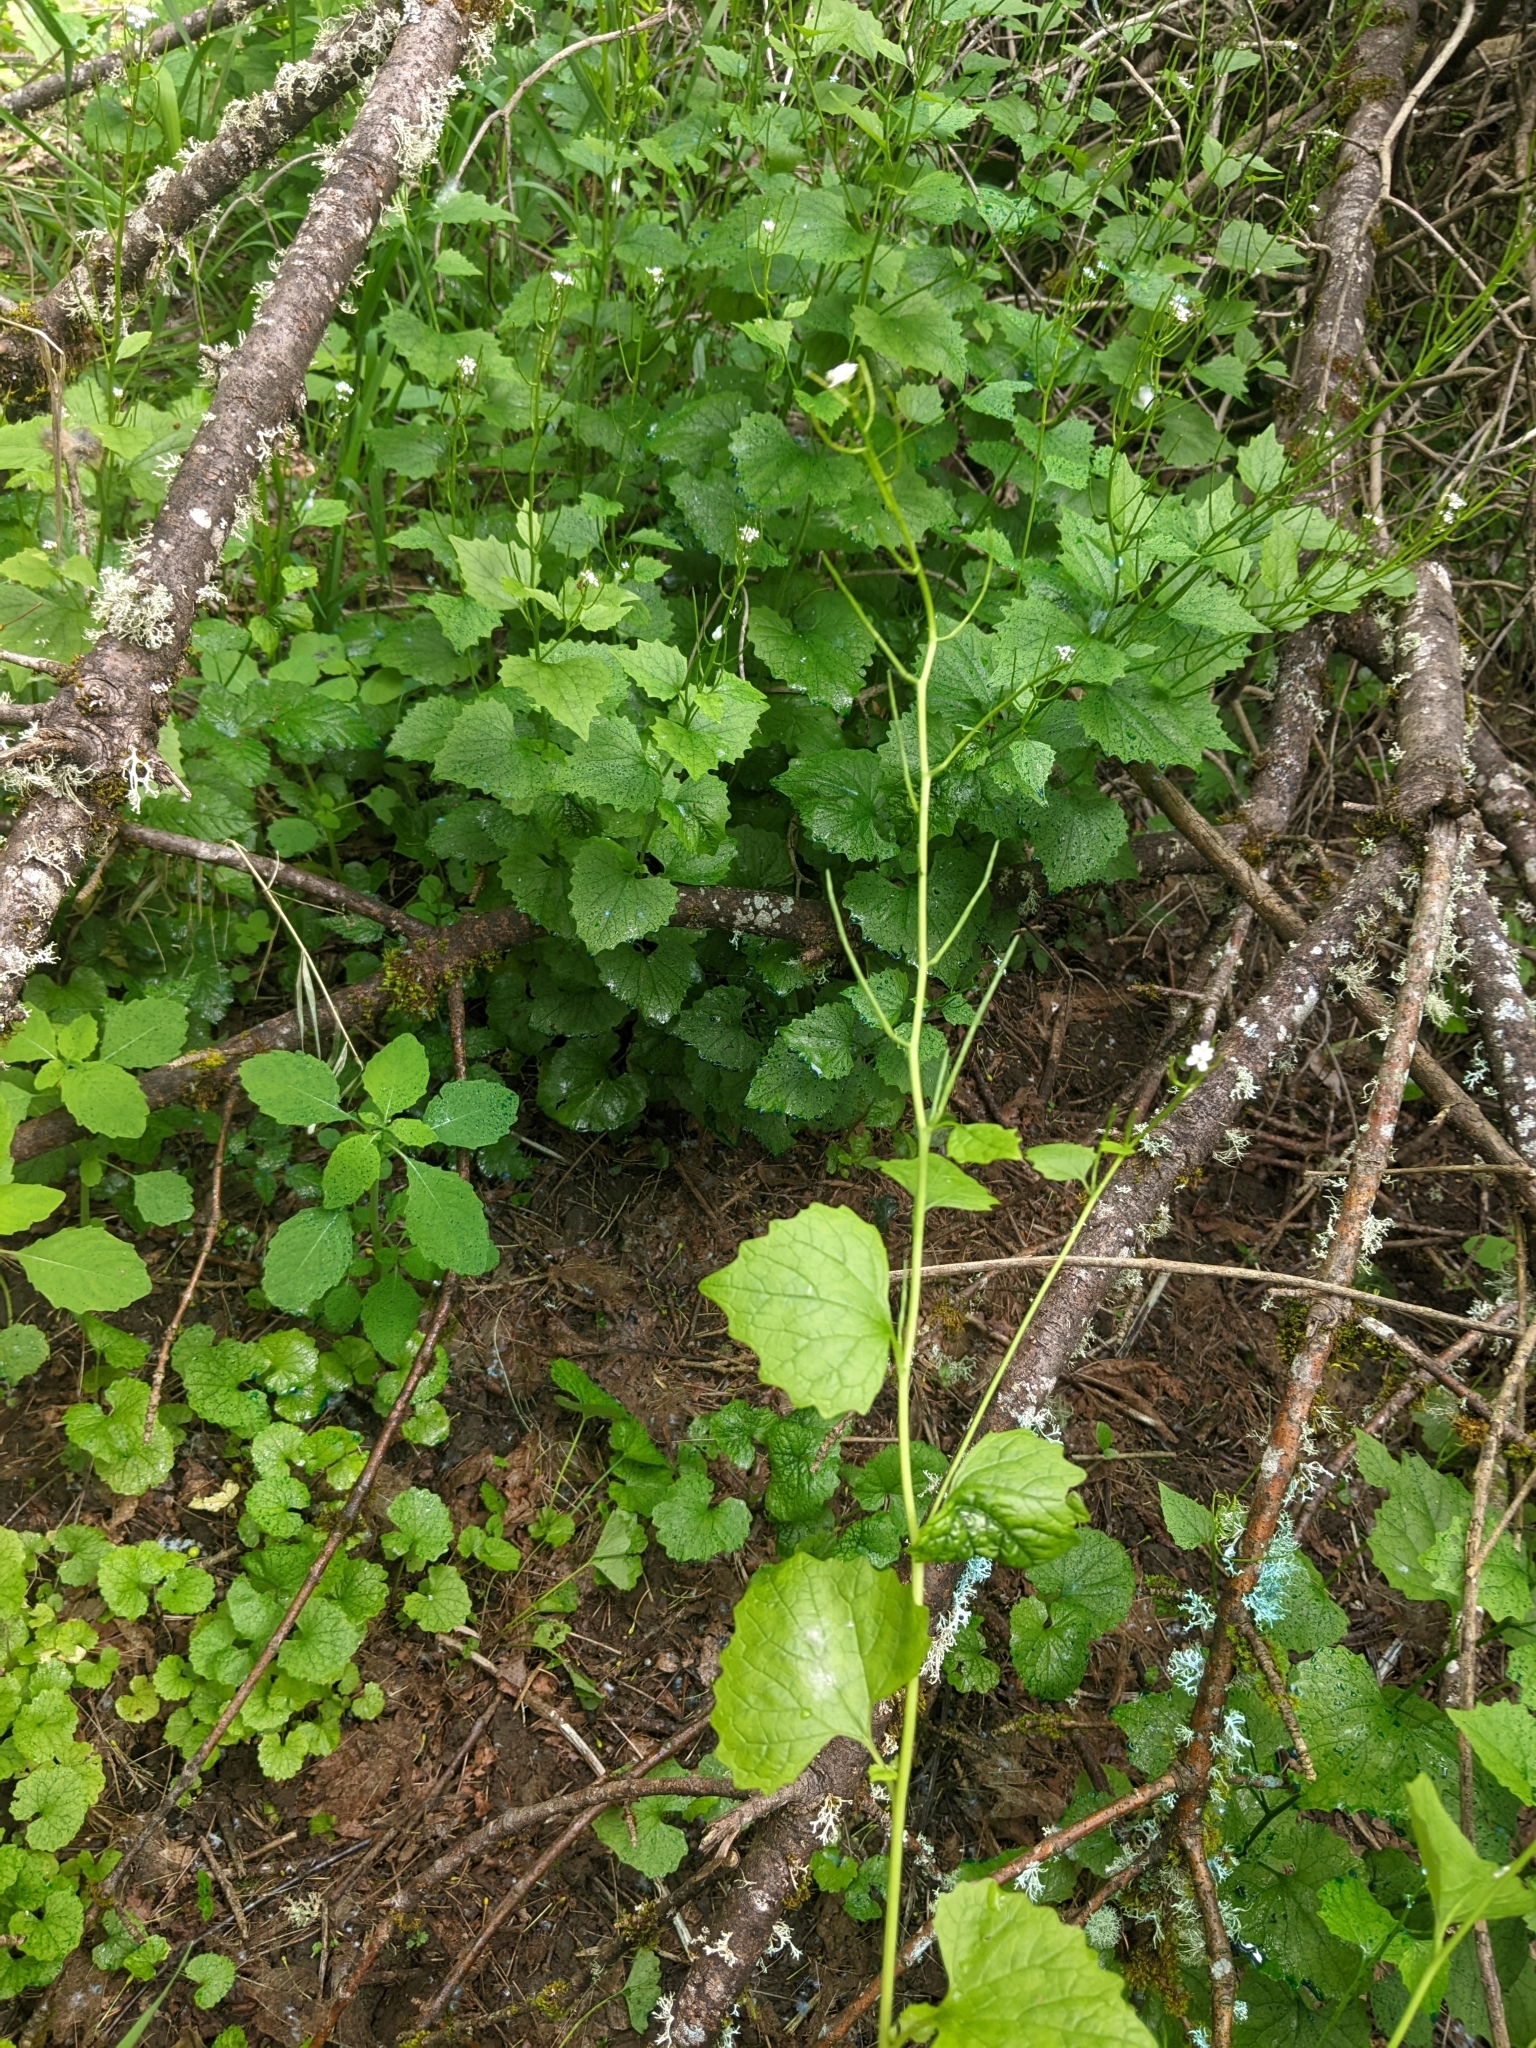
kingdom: Plantae
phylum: Tracheophyta
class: Magnoliopsida
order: Brassicales
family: Brassicaceae
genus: Alliaria
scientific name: Alliaria petiolata
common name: Garlic mustard
